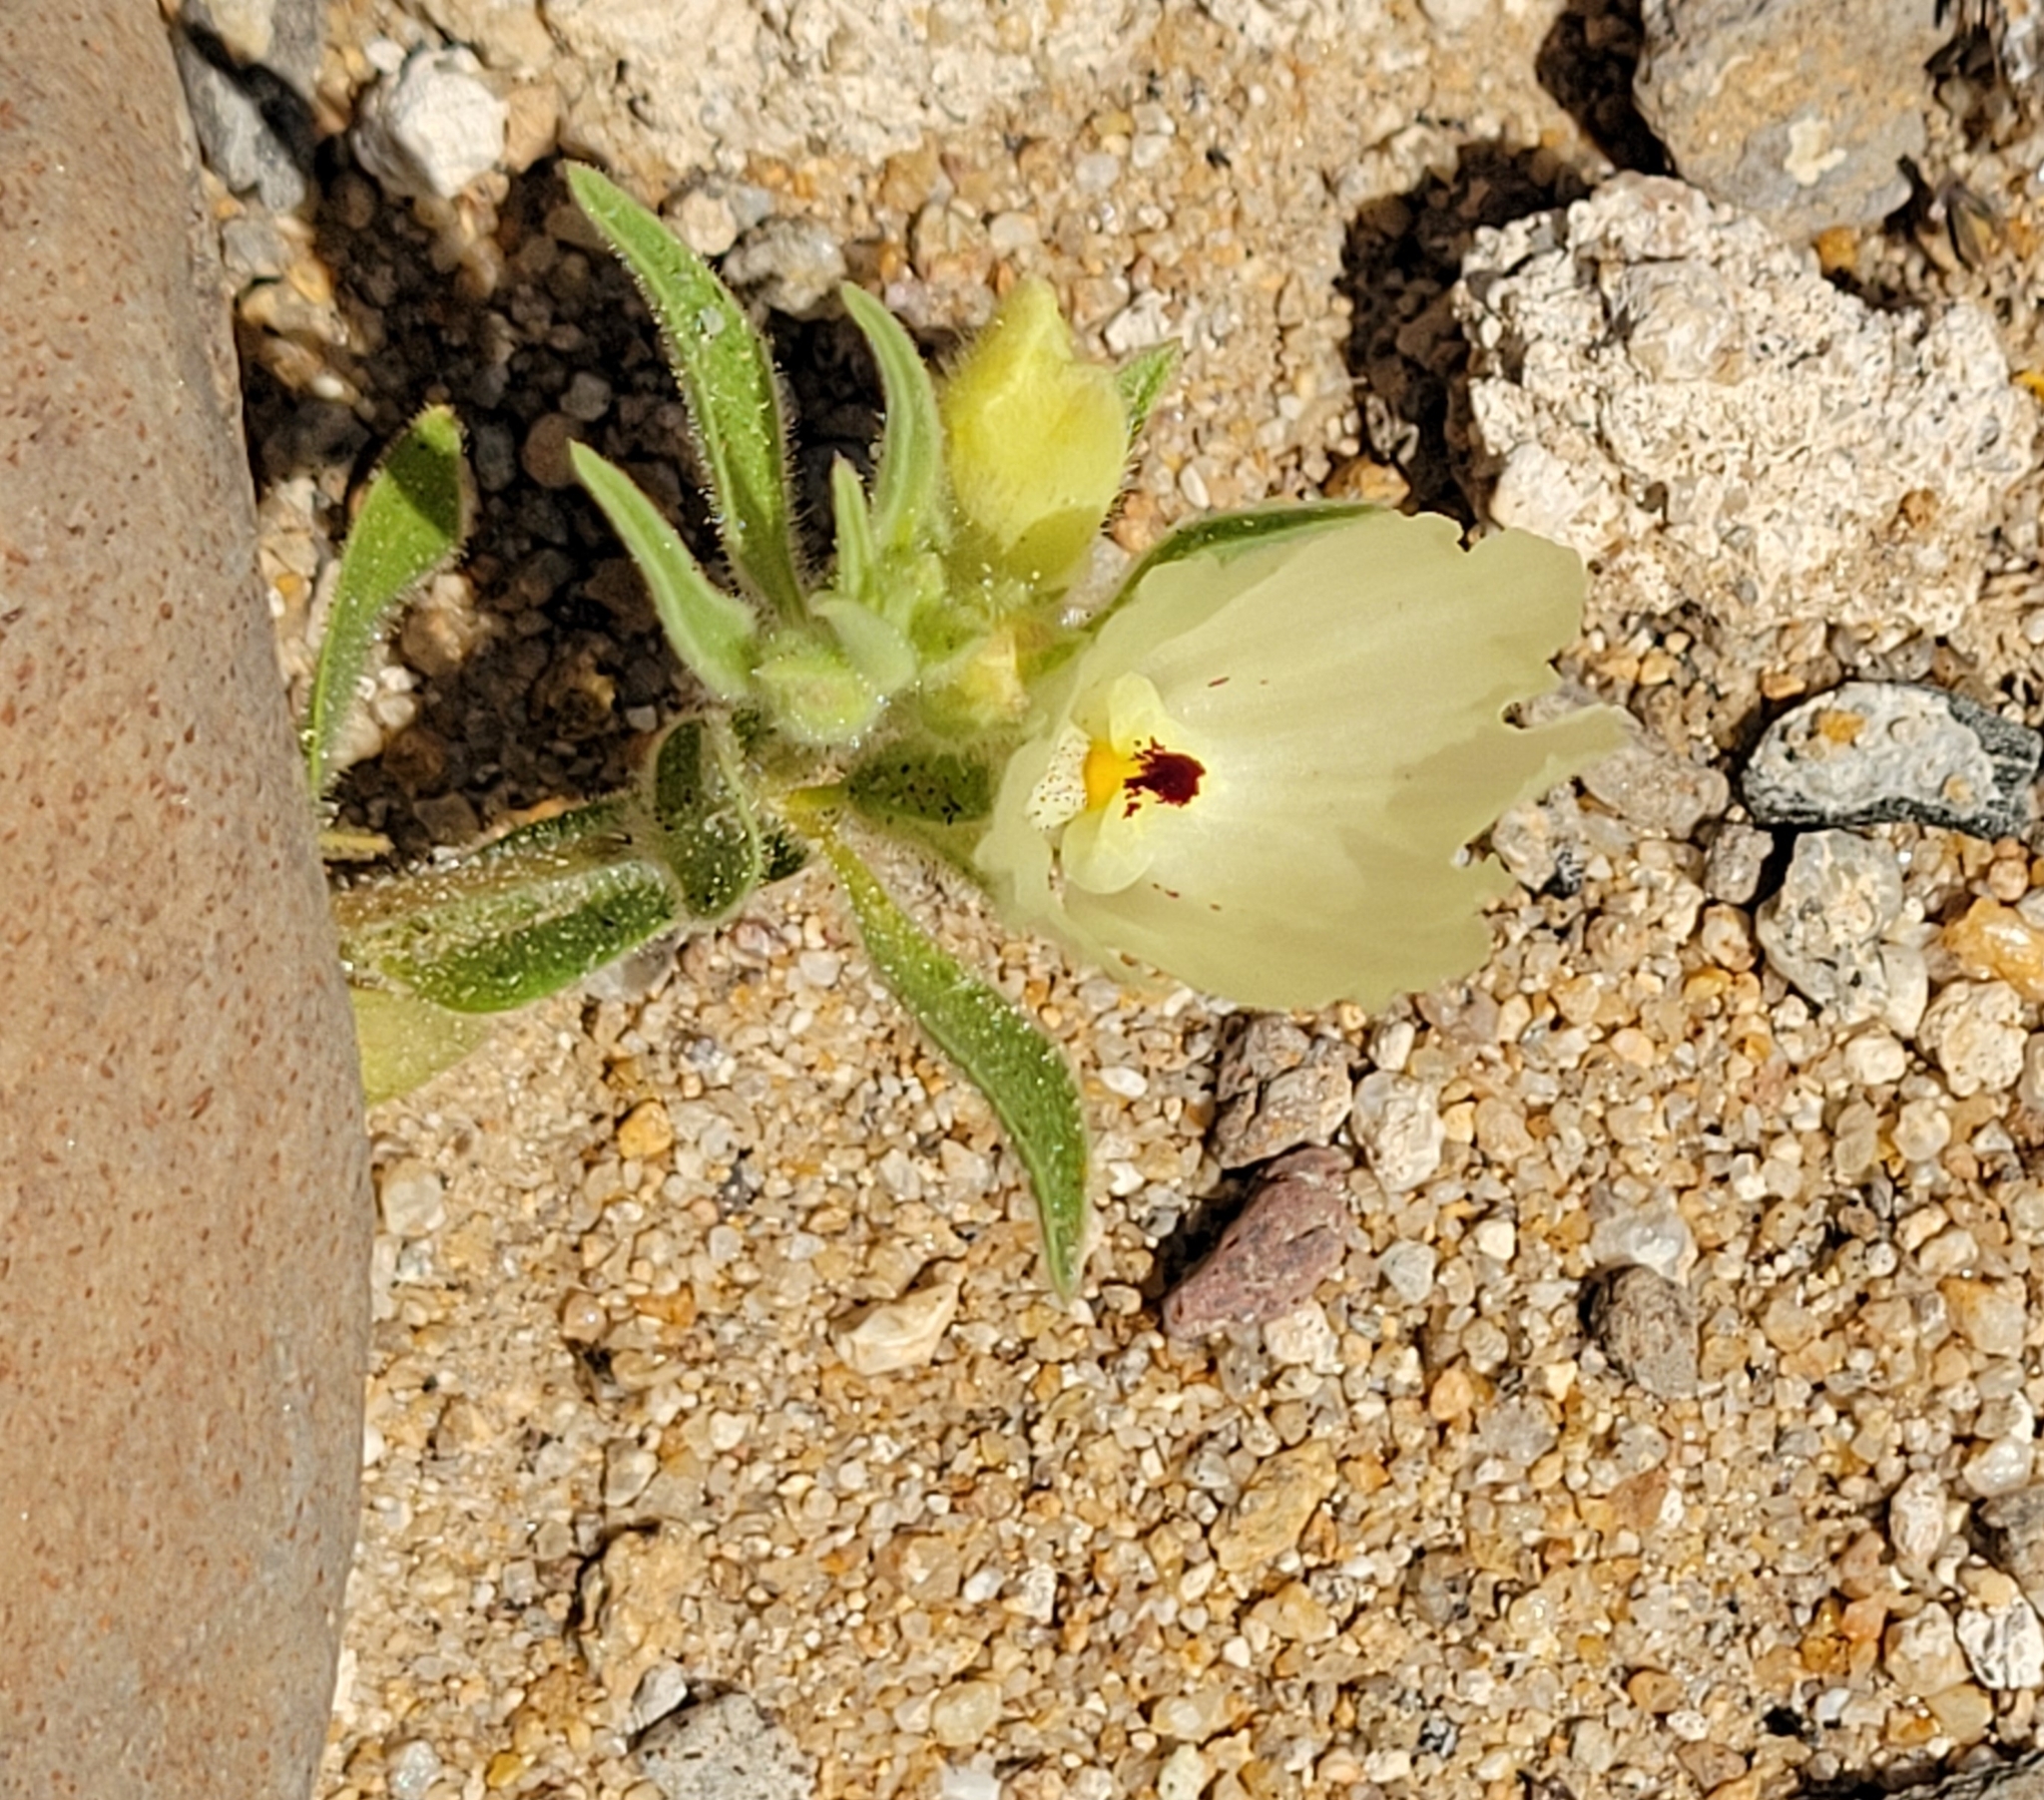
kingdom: Plantae
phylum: Tracheophyta
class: Magnoliopsida
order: Lamiales
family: Plantaginaceae
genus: Mohavea
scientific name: Mohavea confertiflora
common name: Ghost flower
